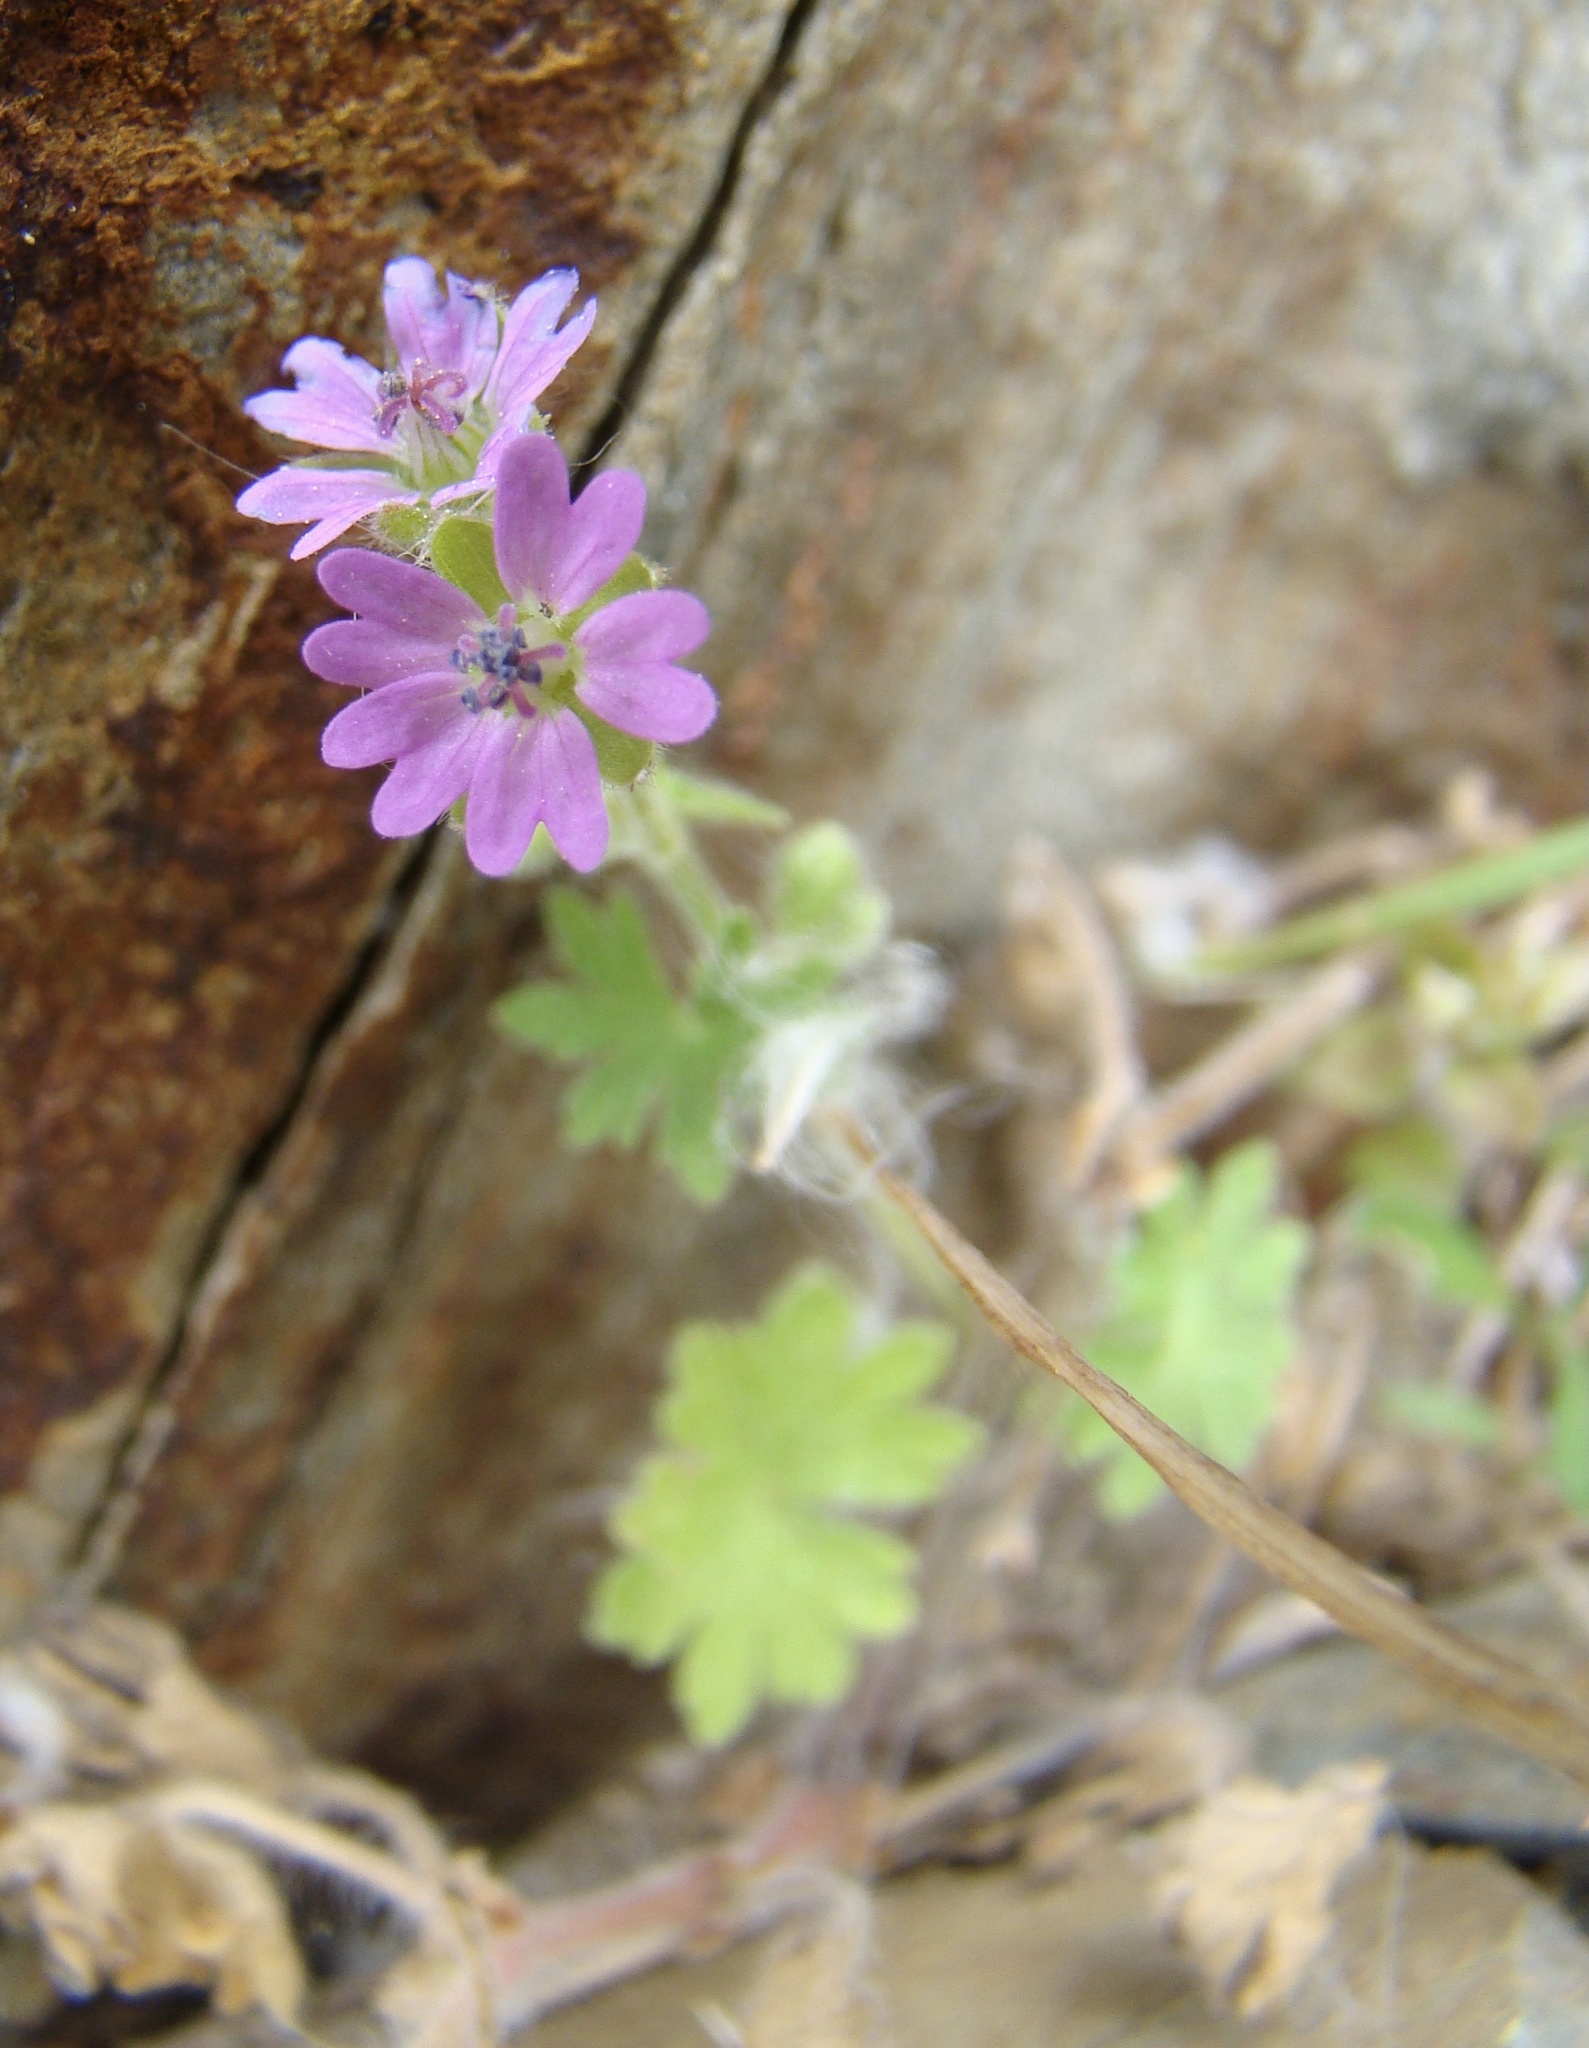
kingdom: Plantae
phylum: Tracheophyta
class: Magnoliopsida
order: Geraniales
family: Geraniaceae
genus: Geranium
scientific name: Geranium molle
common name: Dove's-foot crane's-bill
